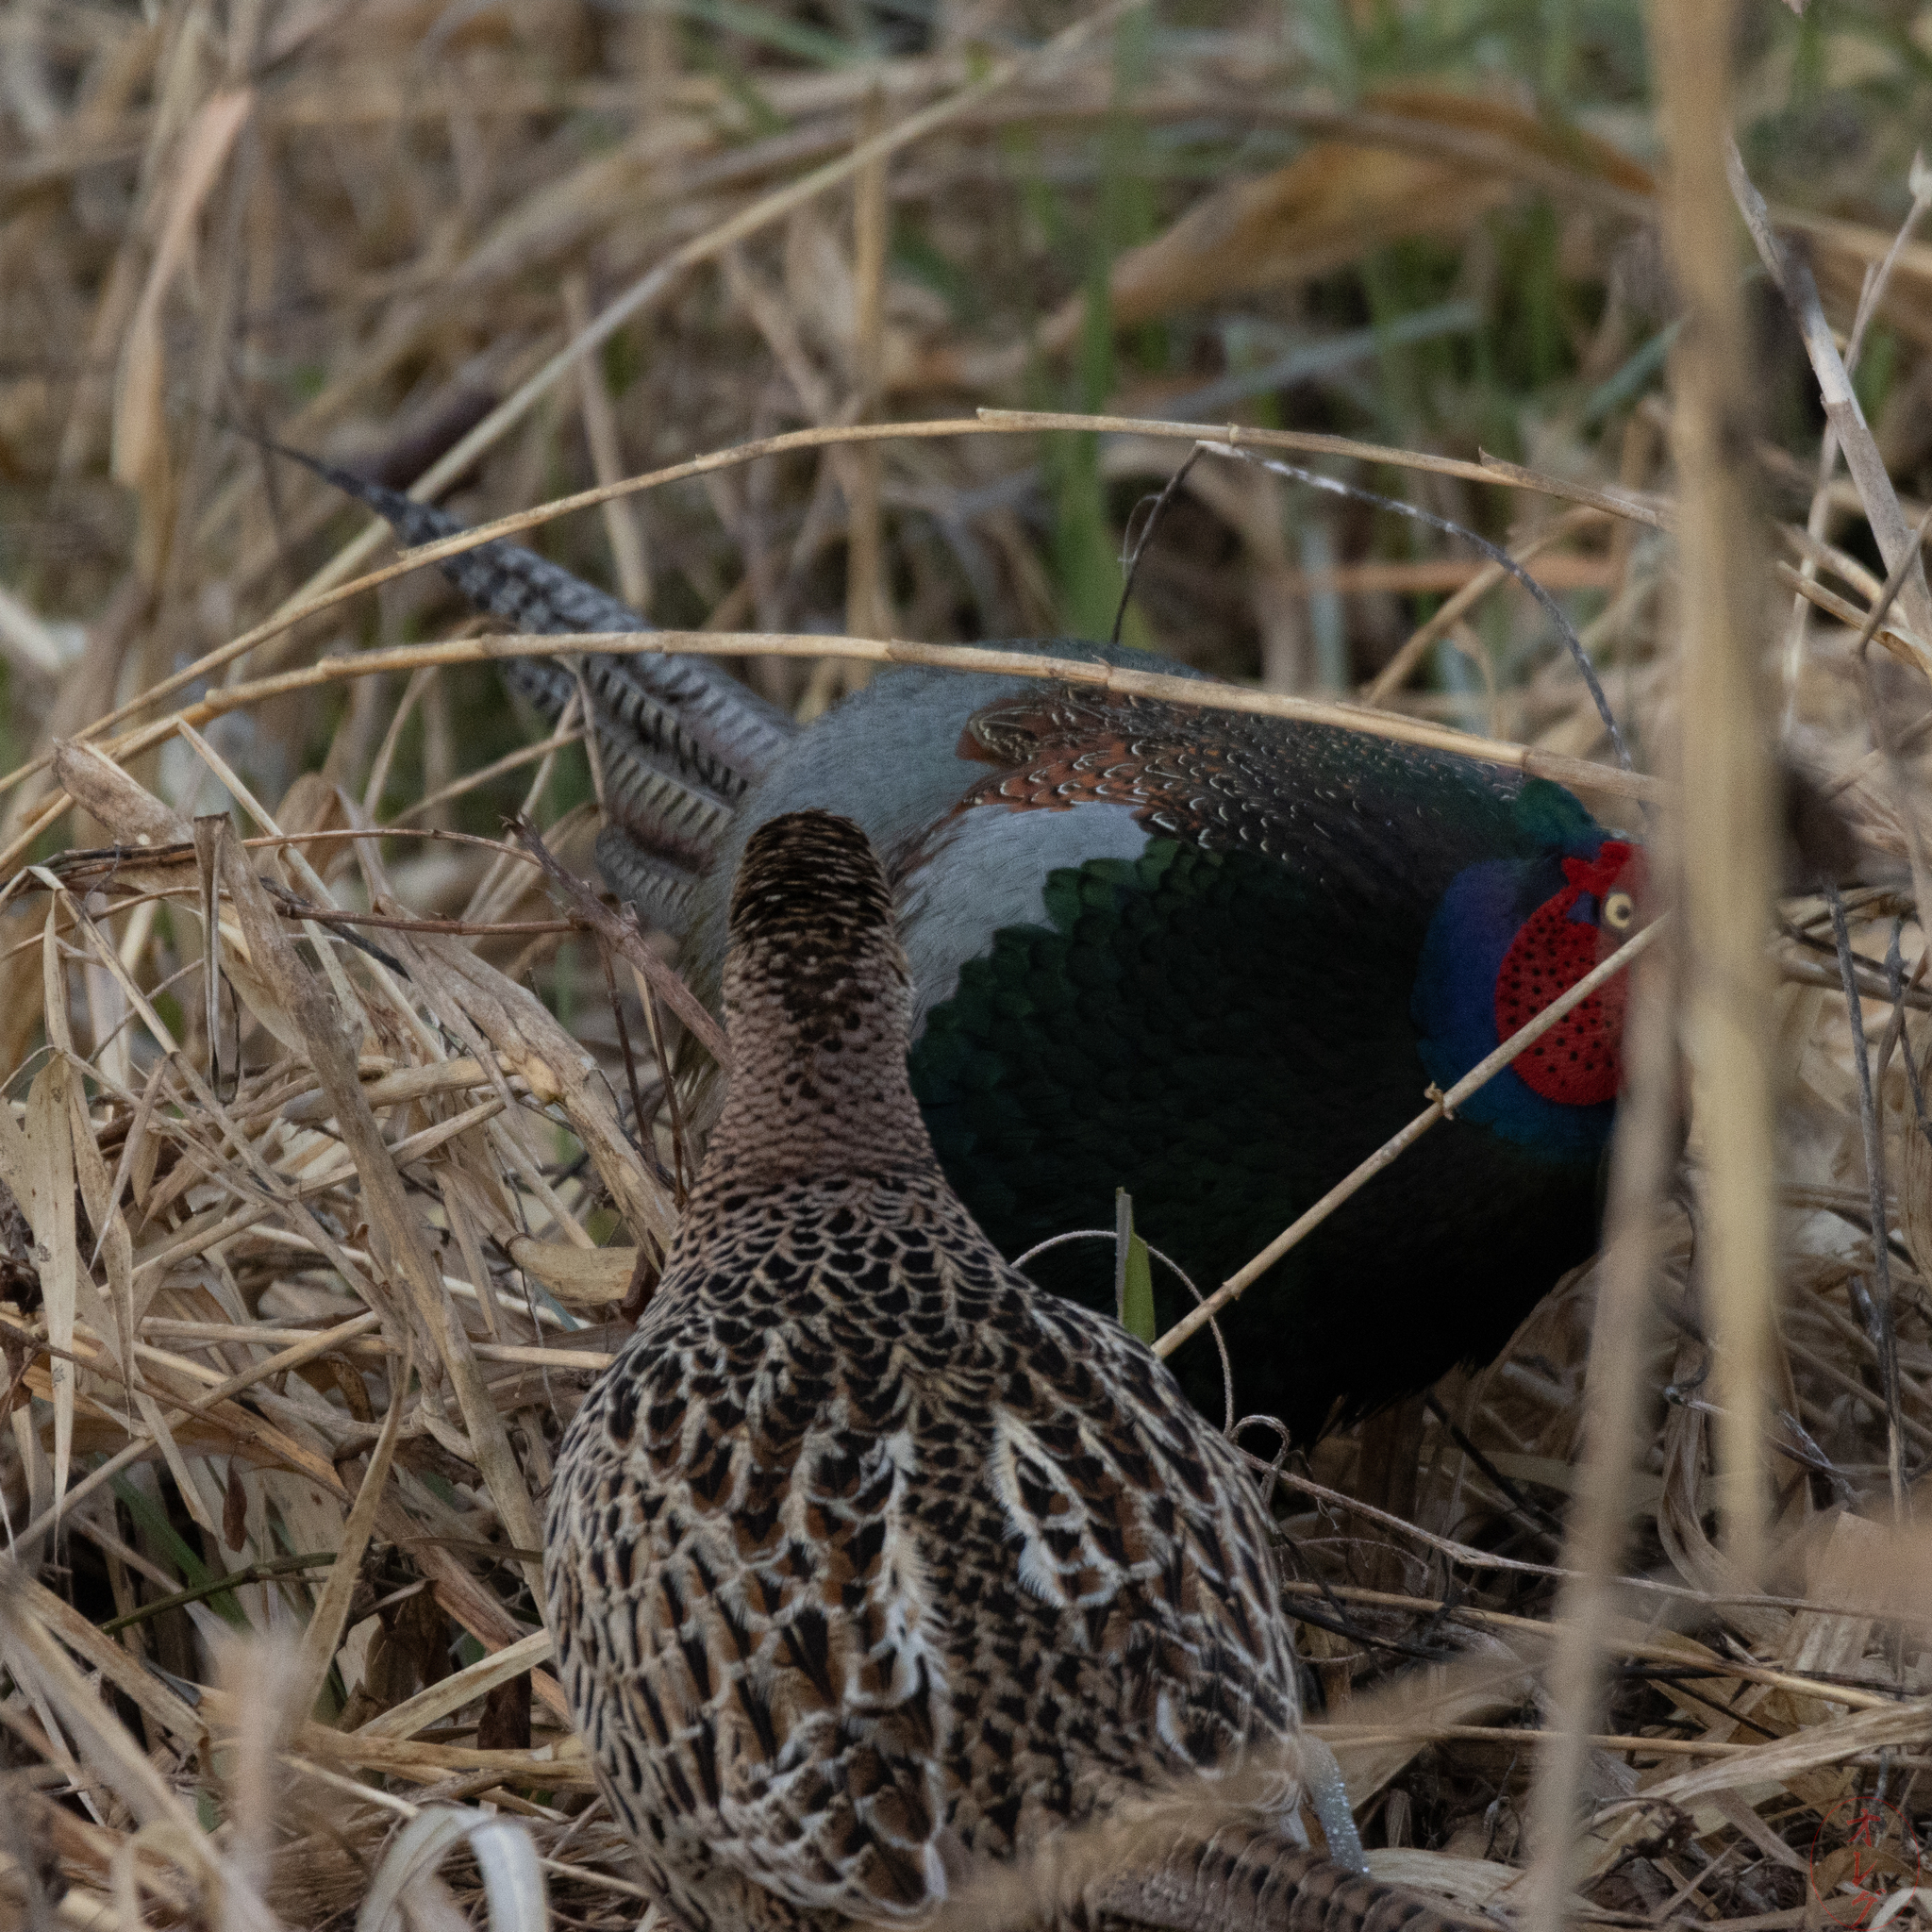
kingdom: Animalia
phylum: Chordata
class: Aves
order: Galliformes
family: Phasianidae
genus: Phasianus
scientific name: Phasianus versicolor
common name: Green pheasant
